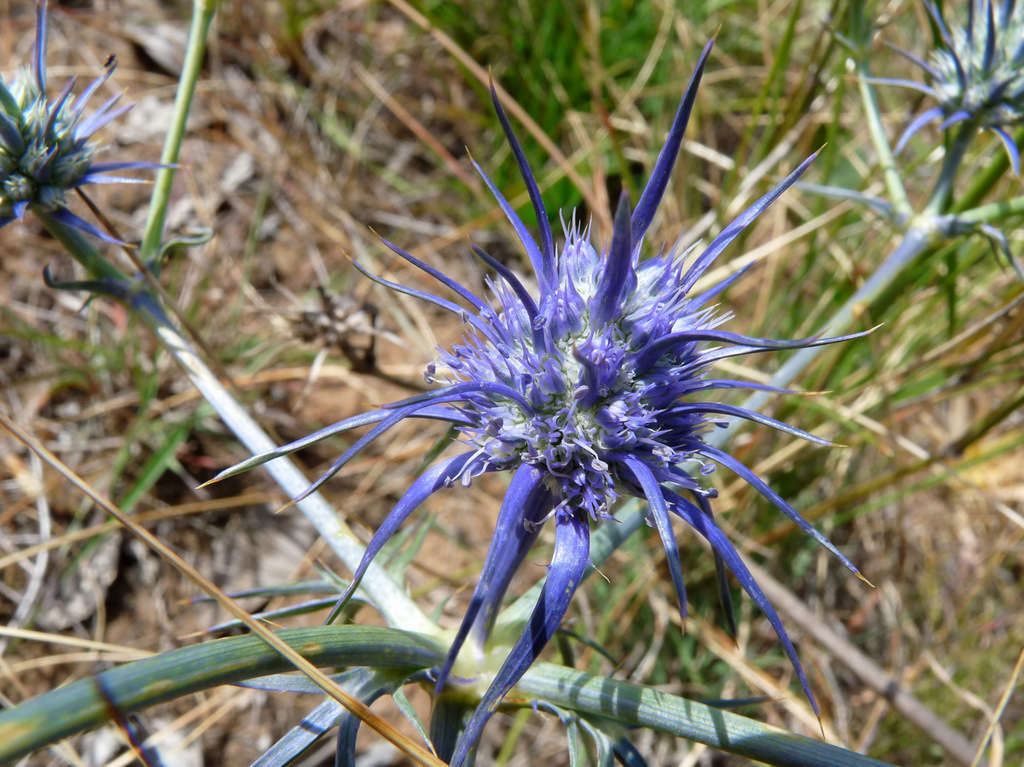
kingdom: Plantae
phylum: Tracheophyta
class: Magnoliopsida
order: Apiales
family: Apiaceae
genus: Eryngium
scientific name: Eryngium ovinum
